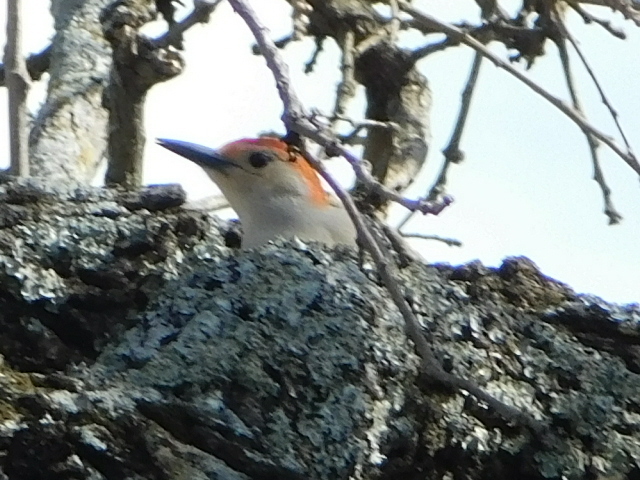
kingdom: Animalia
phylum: Chordata
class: Aves
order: Piciformes
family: Picidae
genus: Melanerpes
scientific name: Melanerpes carolinus
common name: Red-bellied woodpecker
